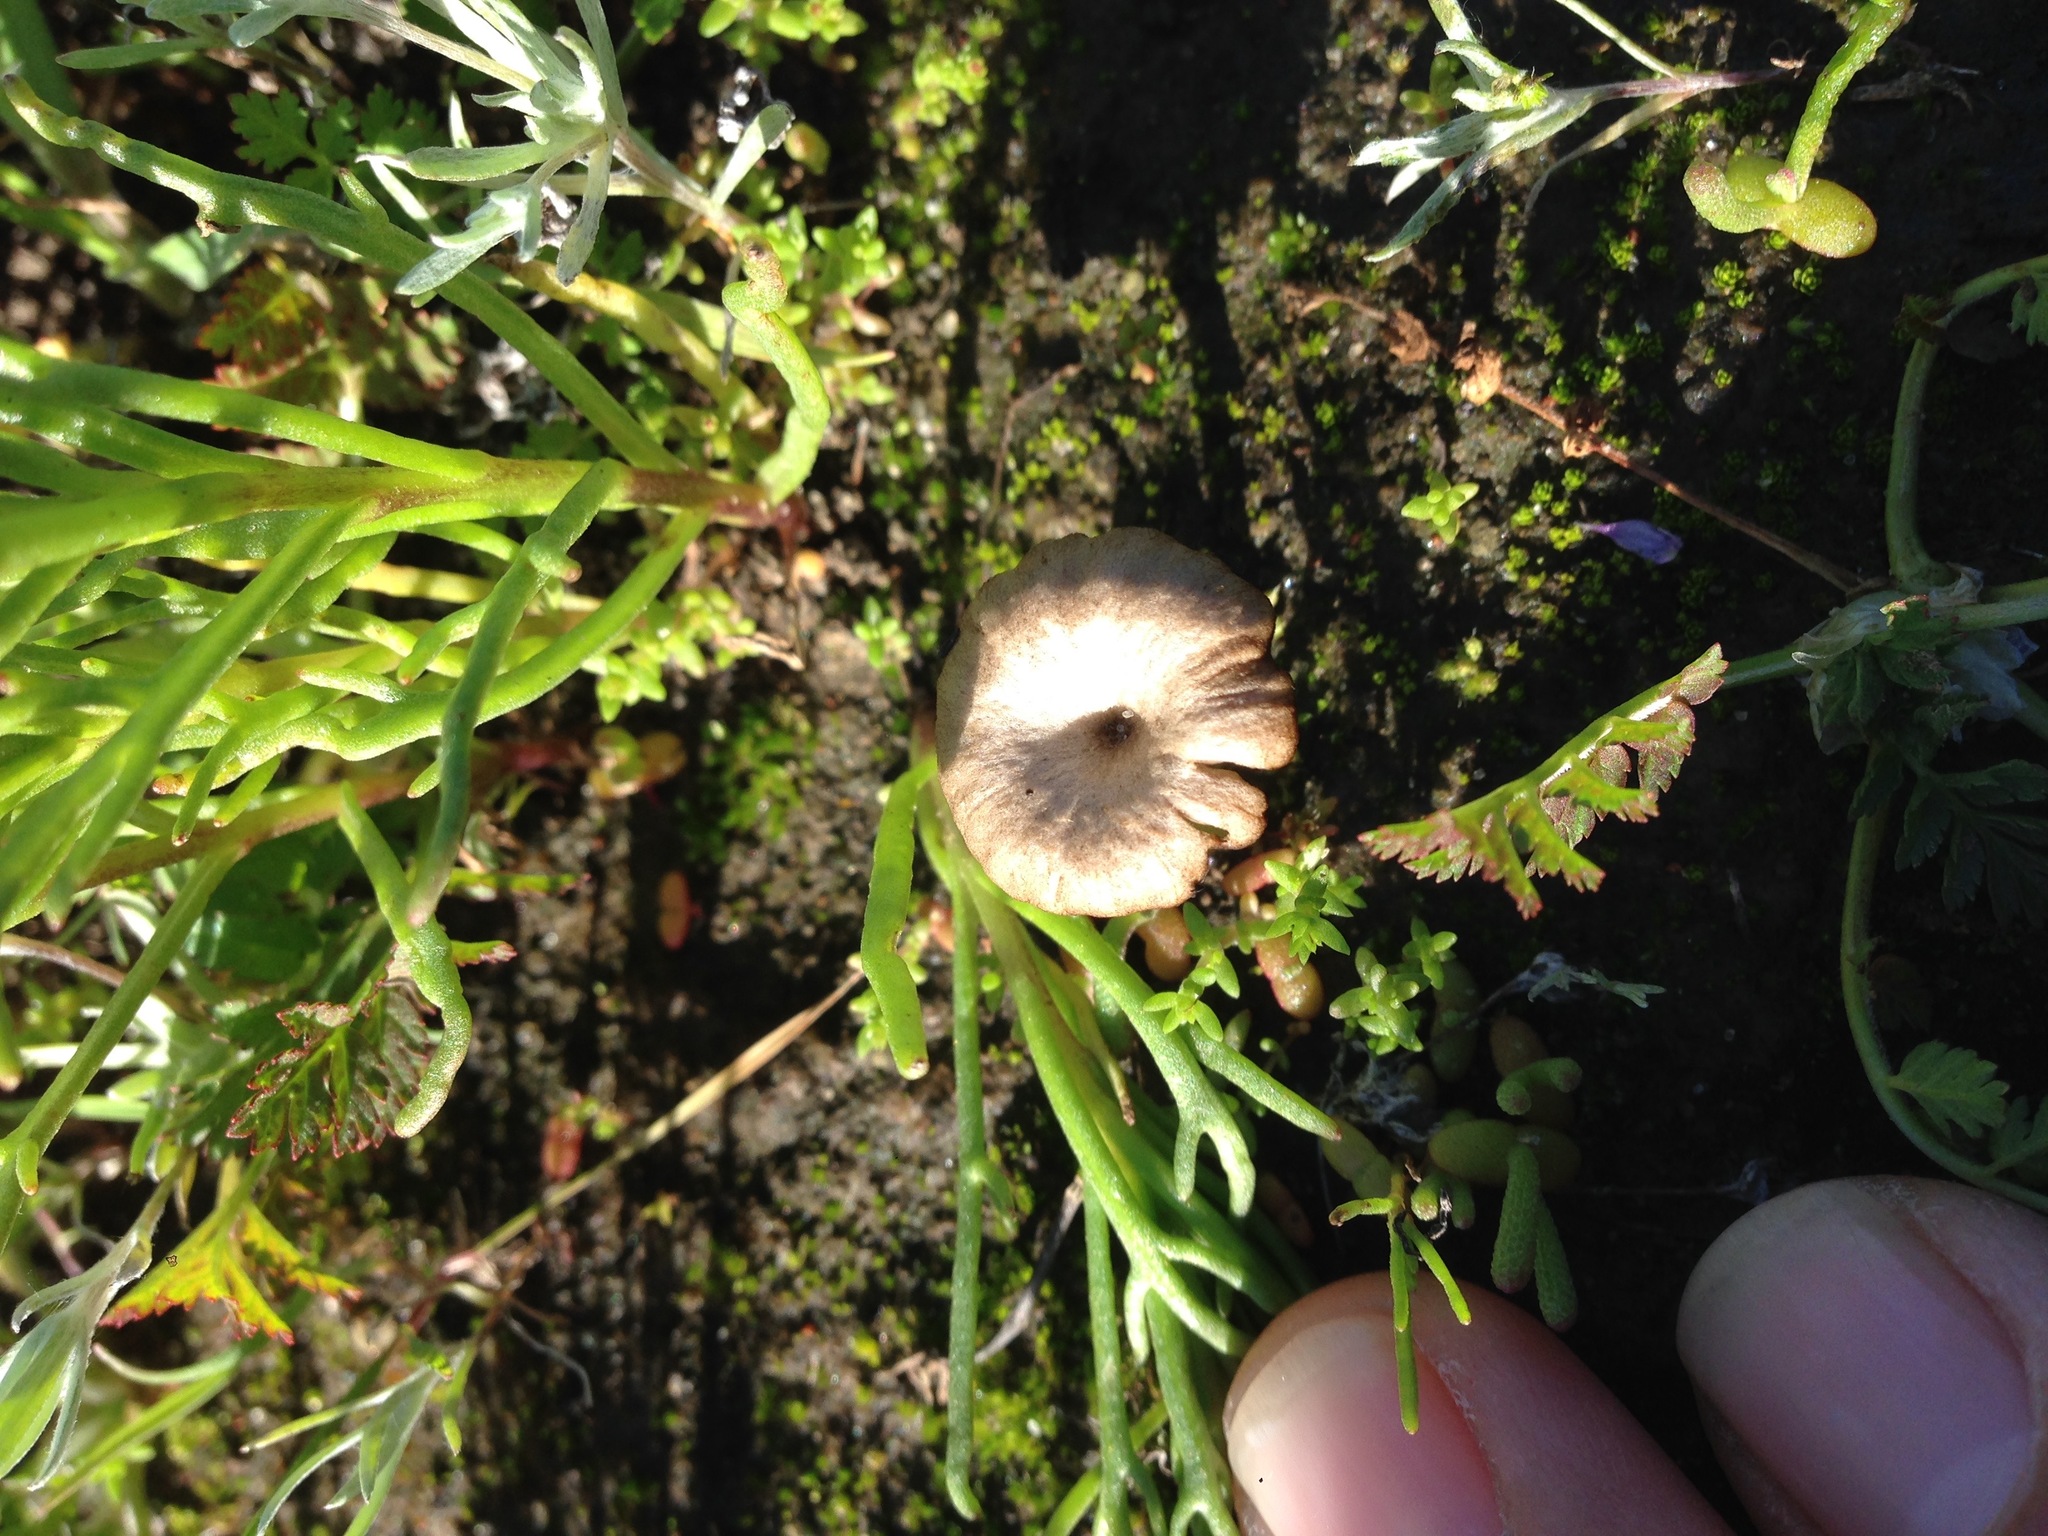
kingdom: Fungi
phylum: Basidiomycota
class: Agaricomycetes
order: Hymenochaetales
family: Rickenellaceae
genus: Contumyces
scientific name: Contumyces rosellus
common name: Rosy navel
